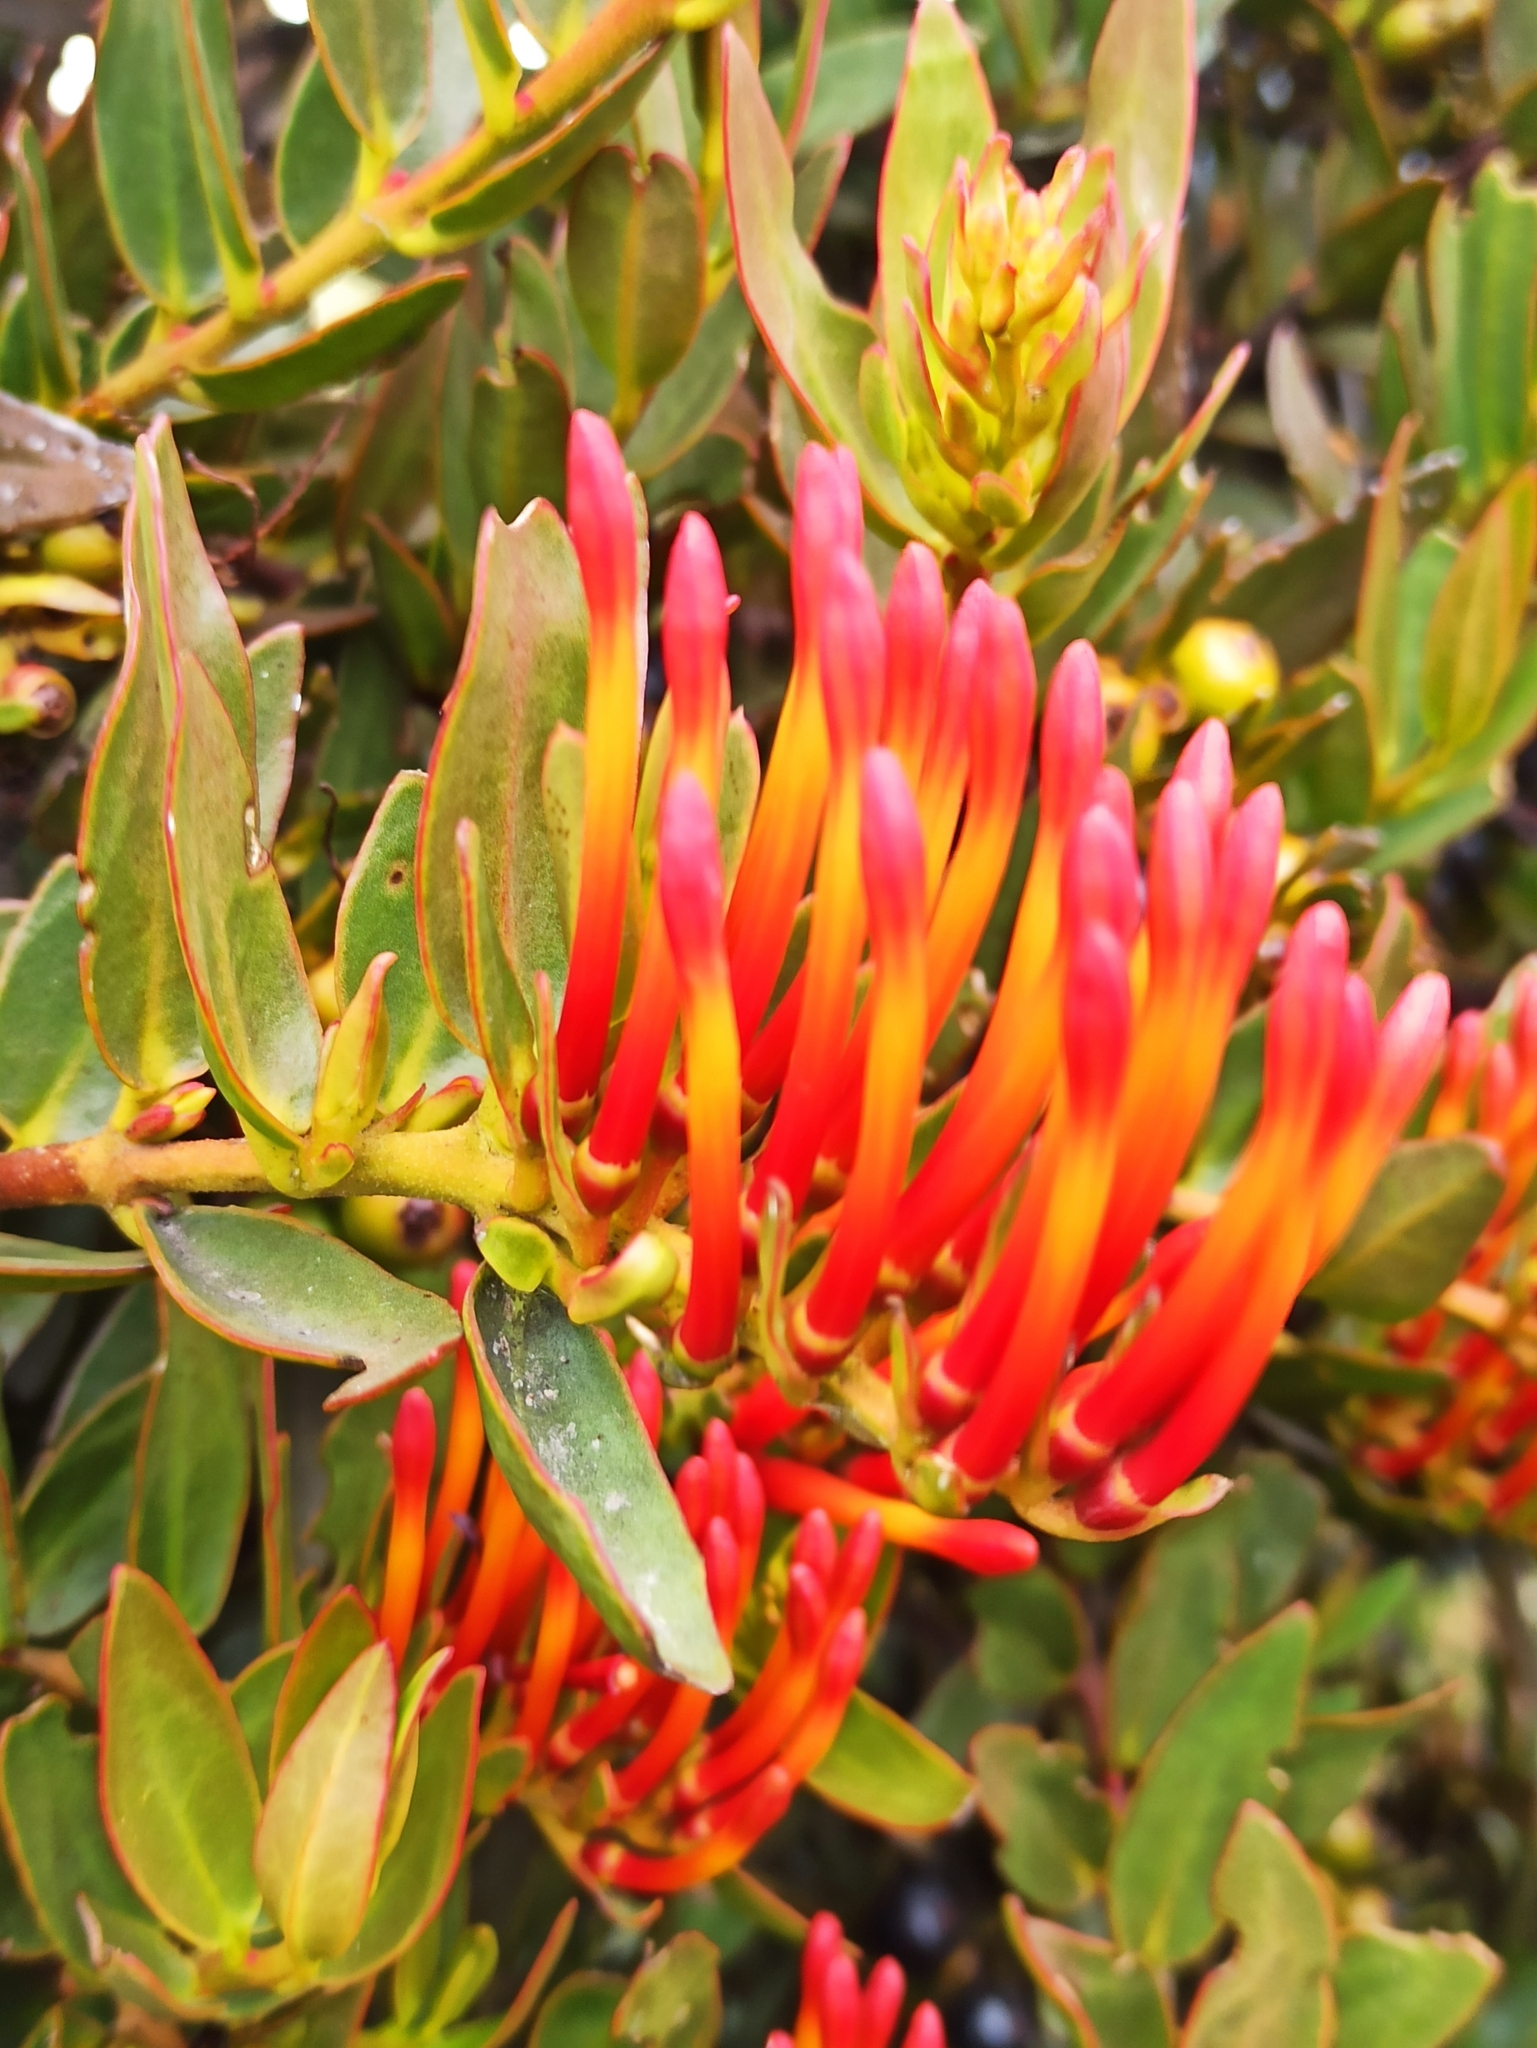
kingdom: Plantae
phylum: Tracheophyta
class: Magnoliopsida
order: Santalales
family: Loranthaceae
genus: Tristerix
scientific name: Tristerix longibracteatus
